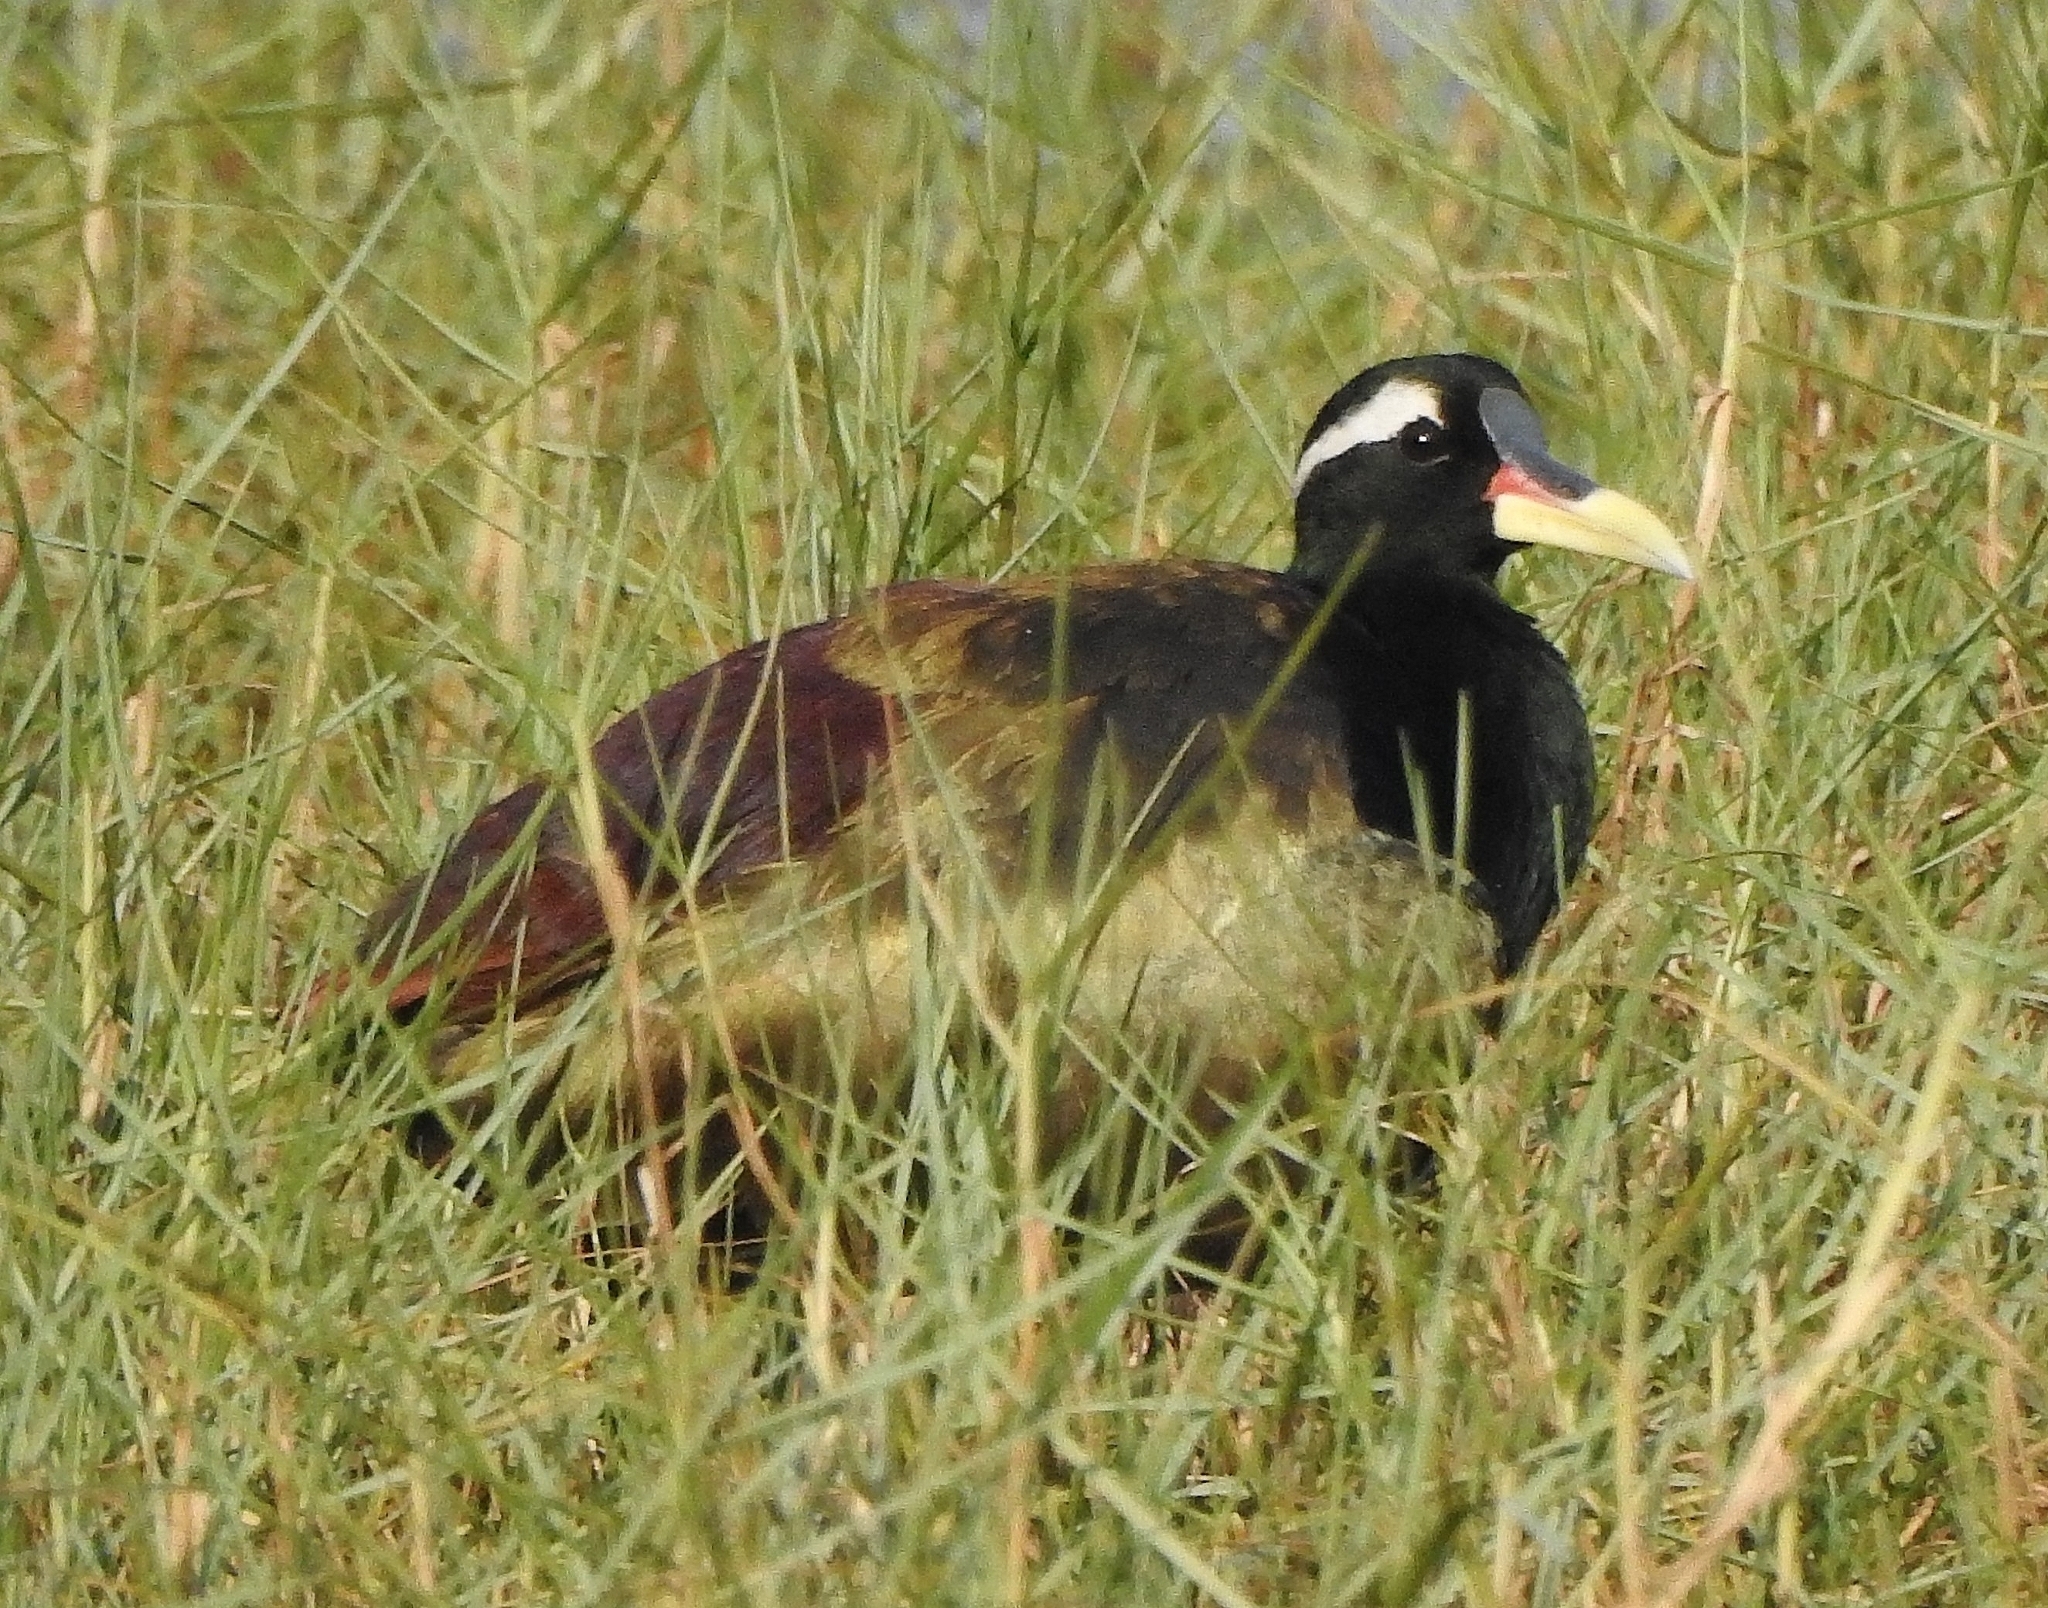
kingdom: Animalia
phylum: Chordata
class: Aves
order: Charadriiformes
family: Jacanidae
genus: Metopidius
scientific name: Metopidius indicus
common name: Bronze-winged jacana
